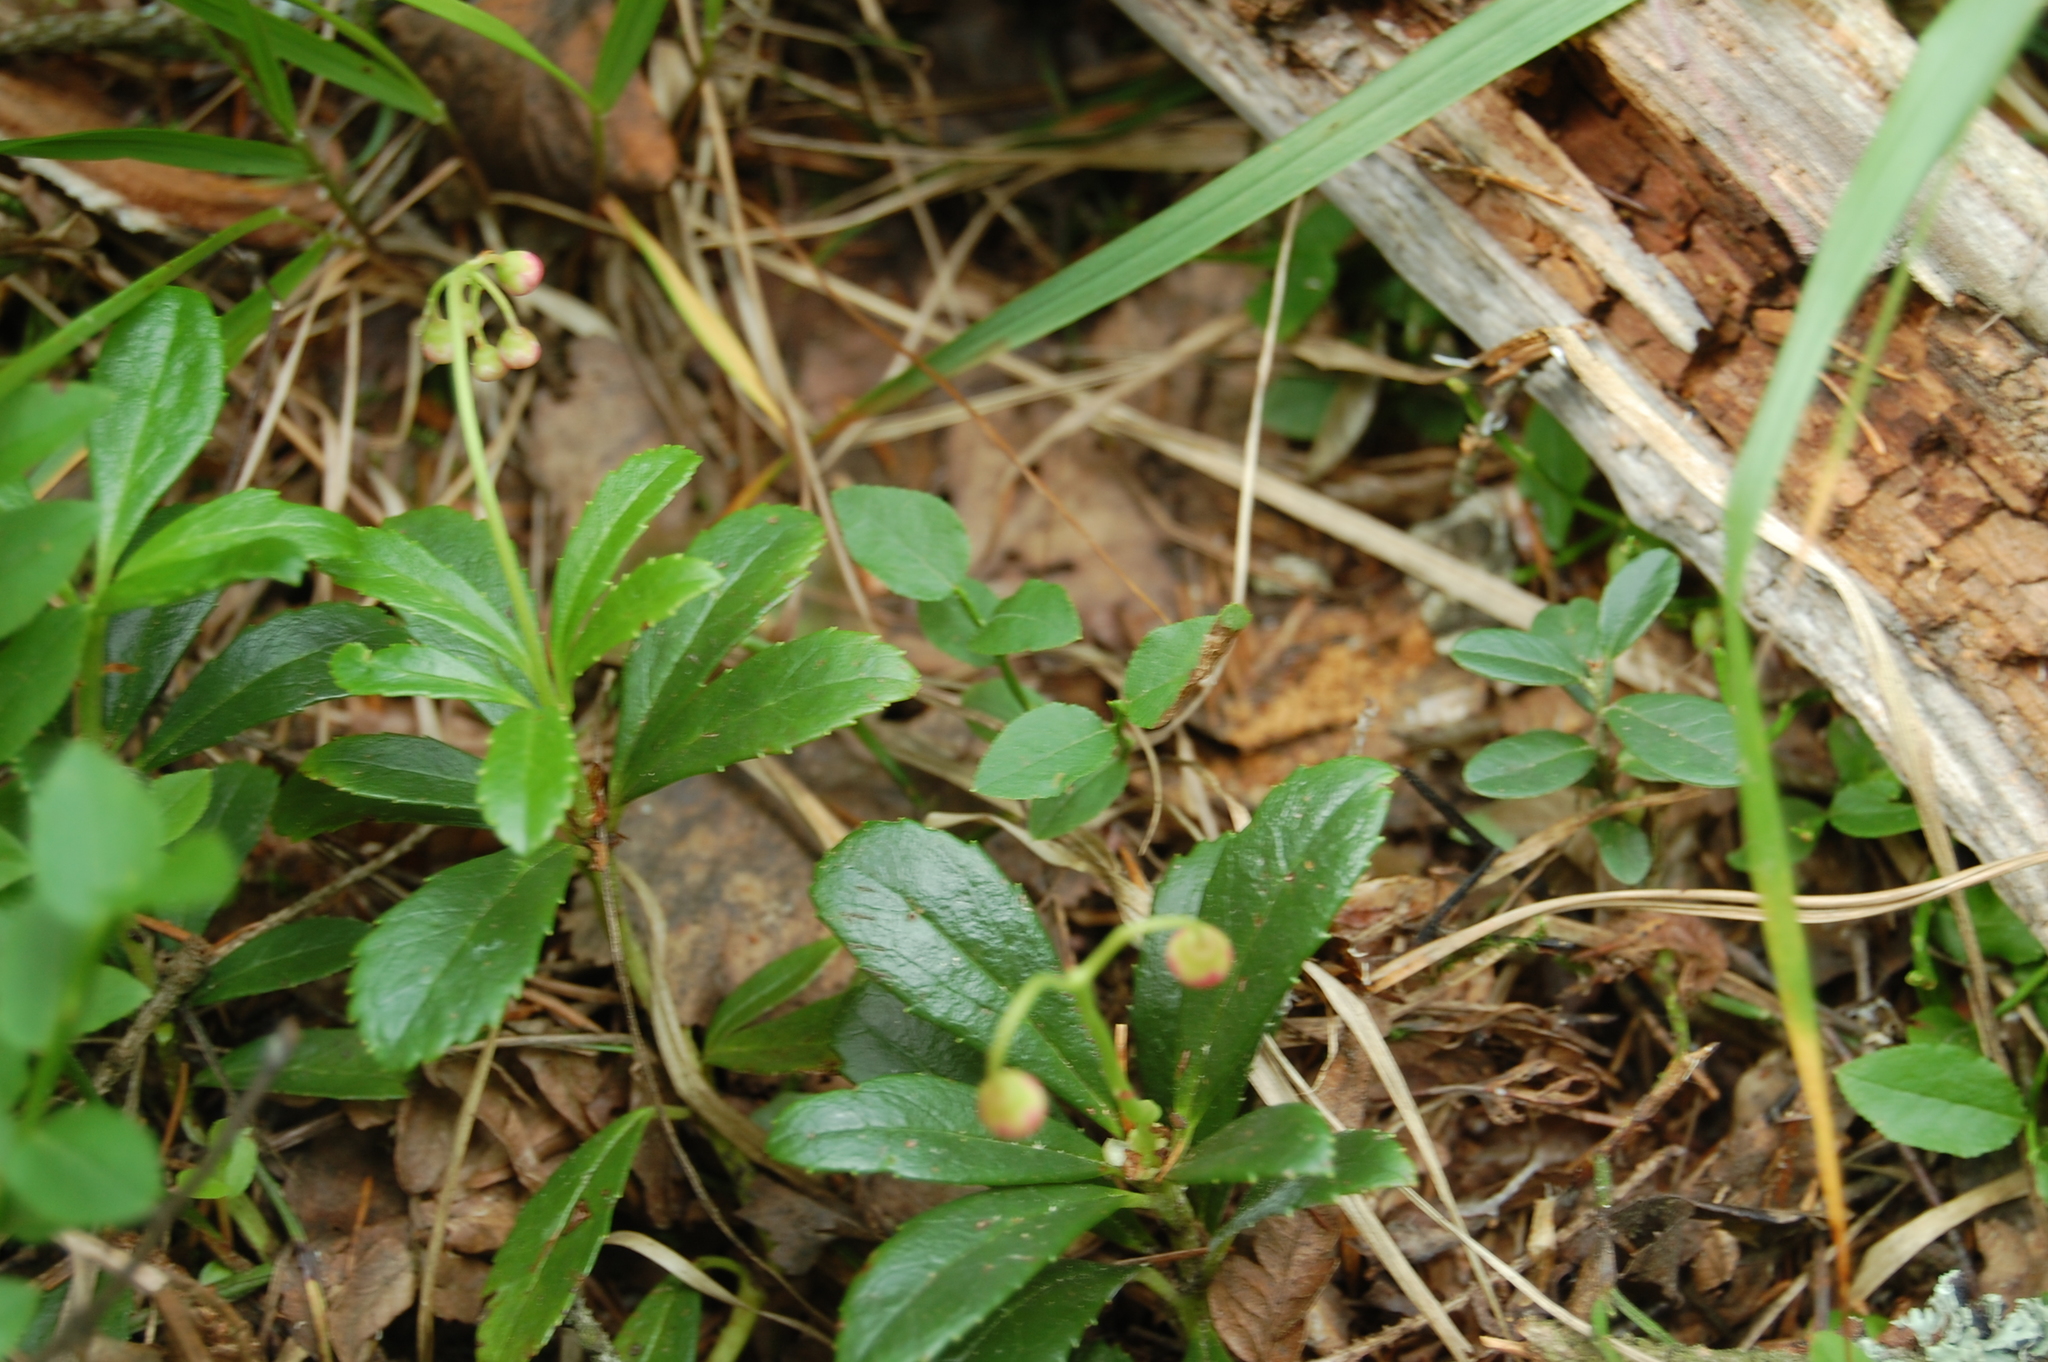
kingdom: Plantae
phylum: Tracheophyta
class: Magnoliopsida
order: Ericales
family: Ericaceae
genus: Chimaphila
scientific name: Chimaphila umbellata
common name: Pipsissewa
